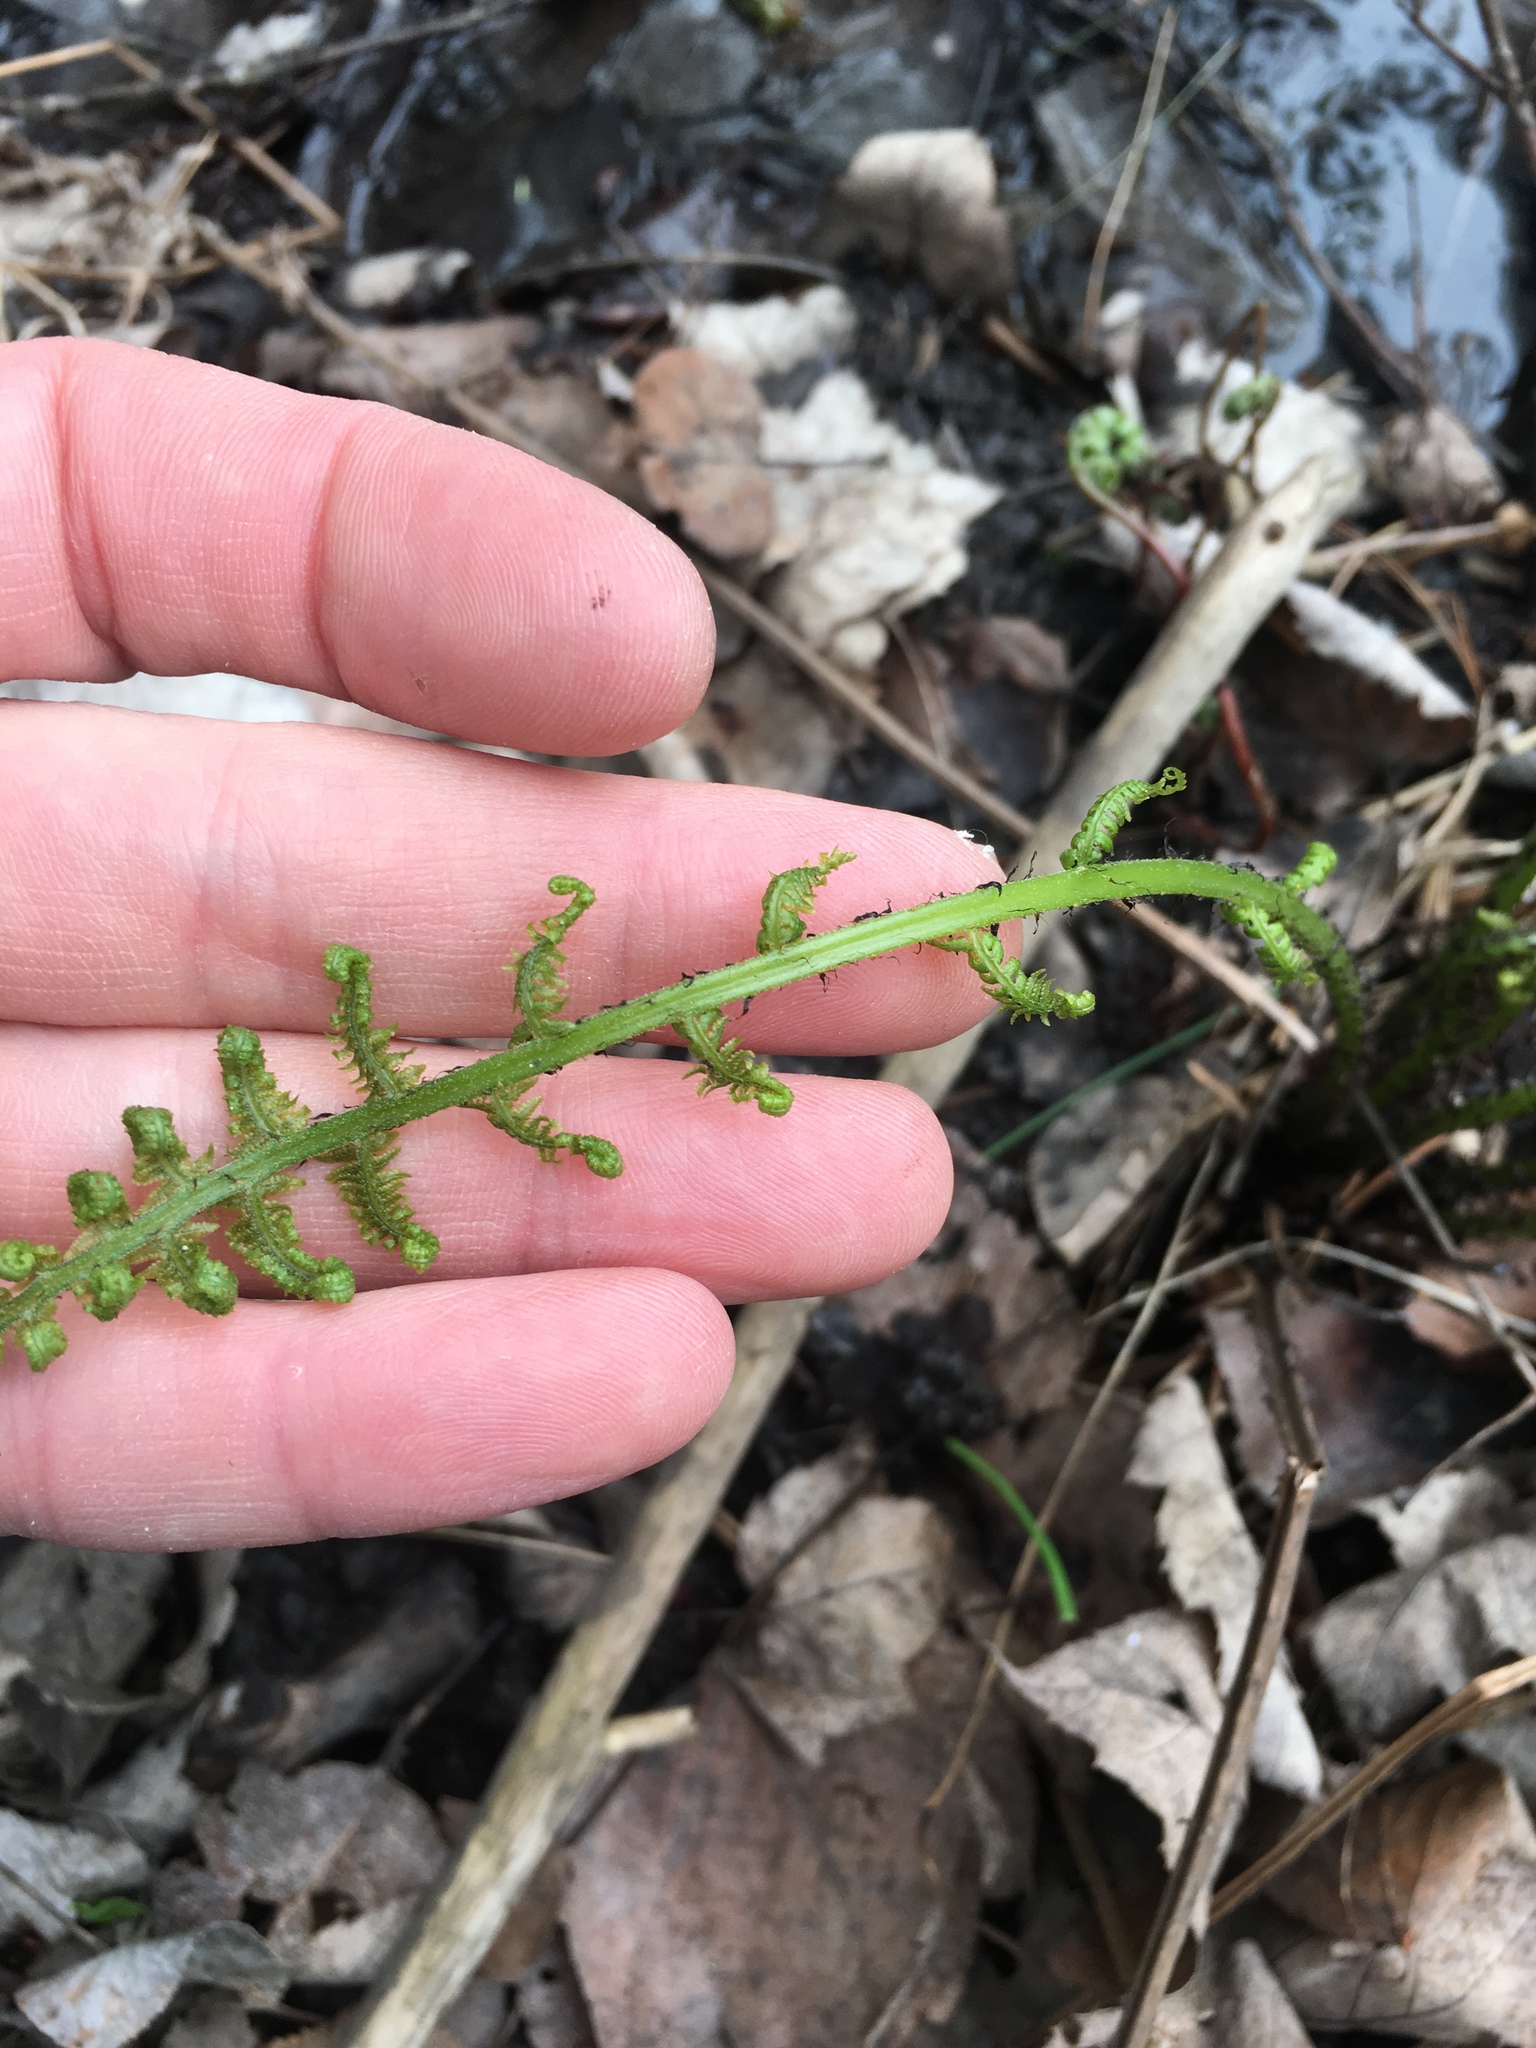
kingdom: Plantae
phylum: Tracheophyta
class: Polypodiopsida
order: Polypodiales
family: Athyriaceae
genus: Athyrium
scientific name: Athyrium angustum
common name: Northern lady fern
